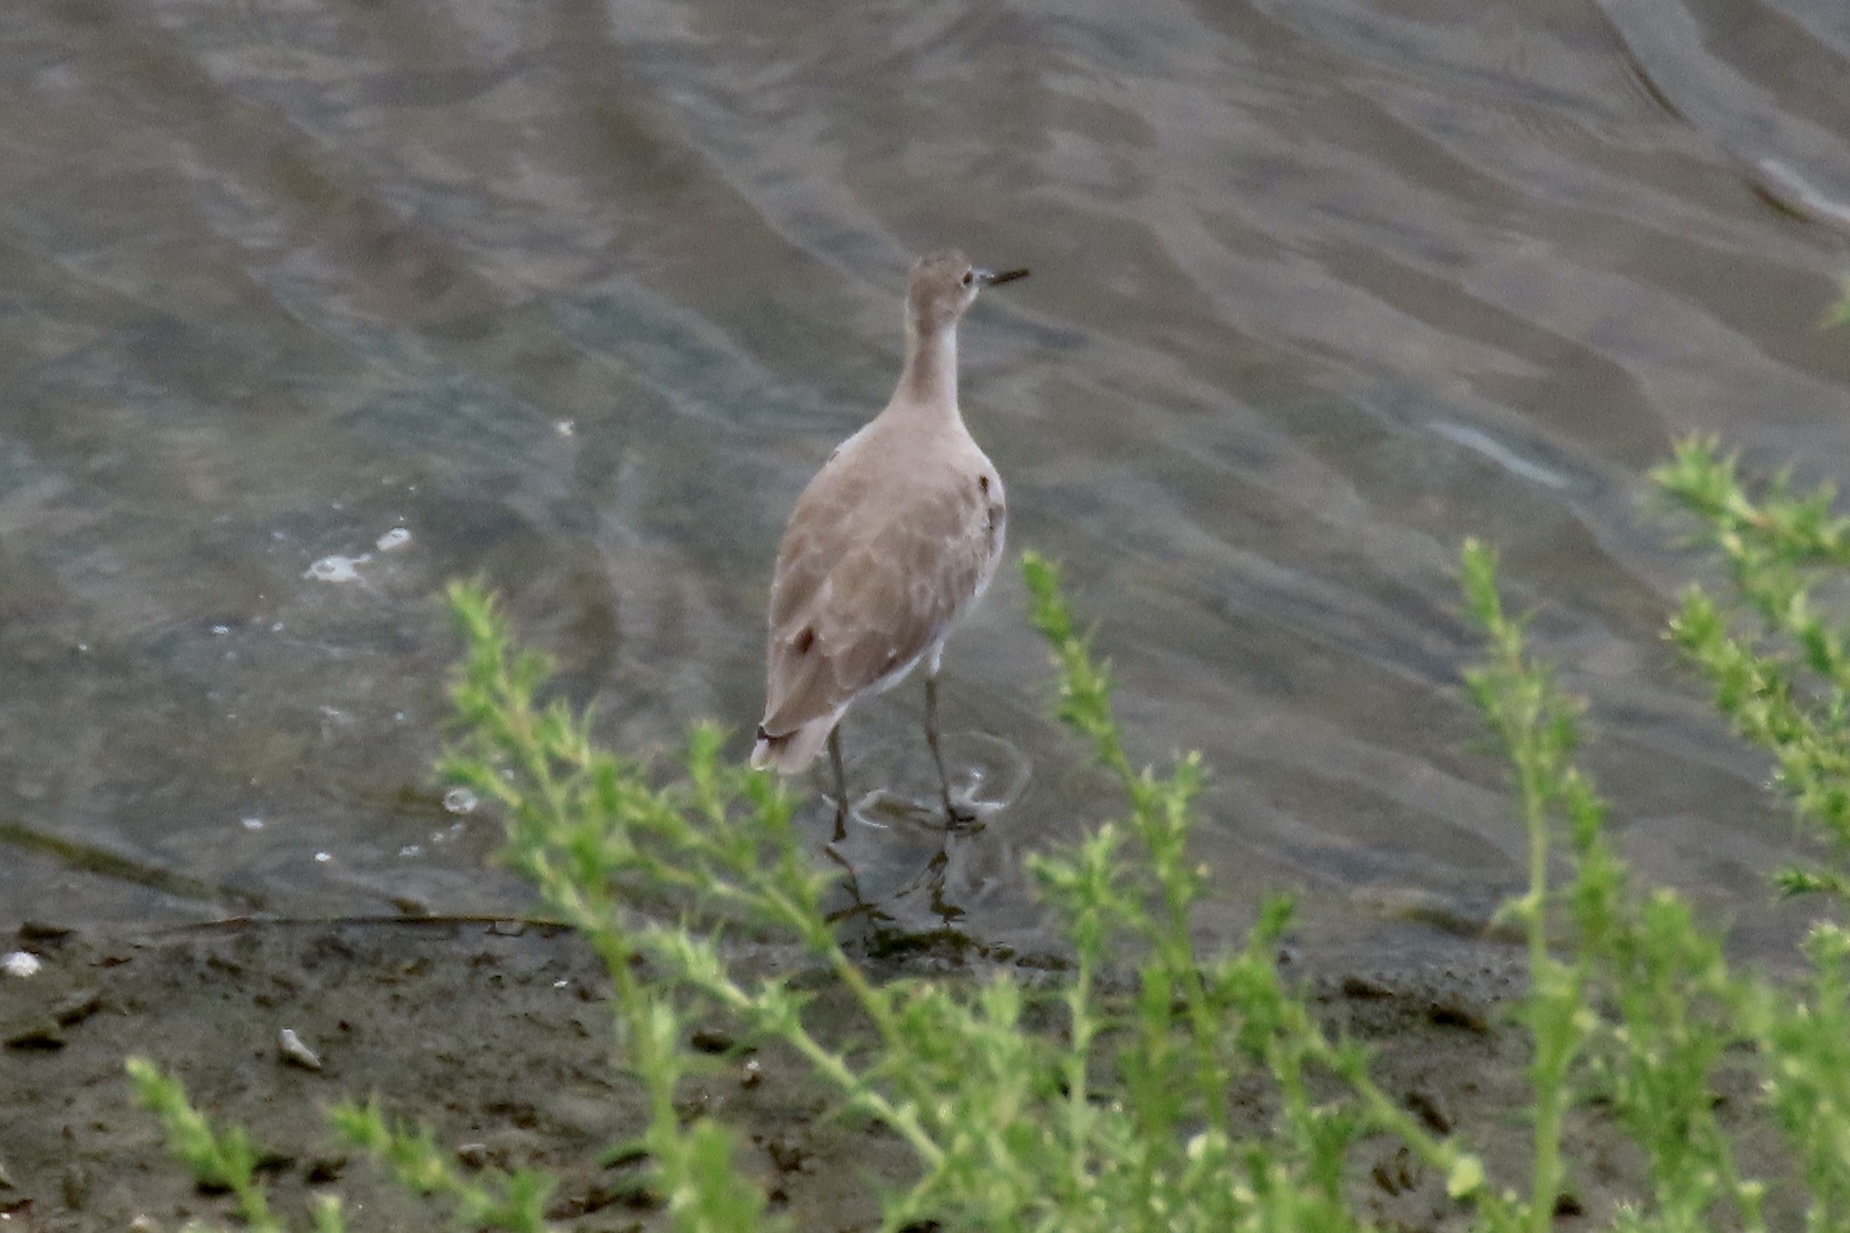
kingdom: Animalia
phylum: Chordata
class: Aves
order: Charadriiformes
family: Scolopacidae
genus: Tringa
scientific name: Tringa semipalmata
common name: Willet
